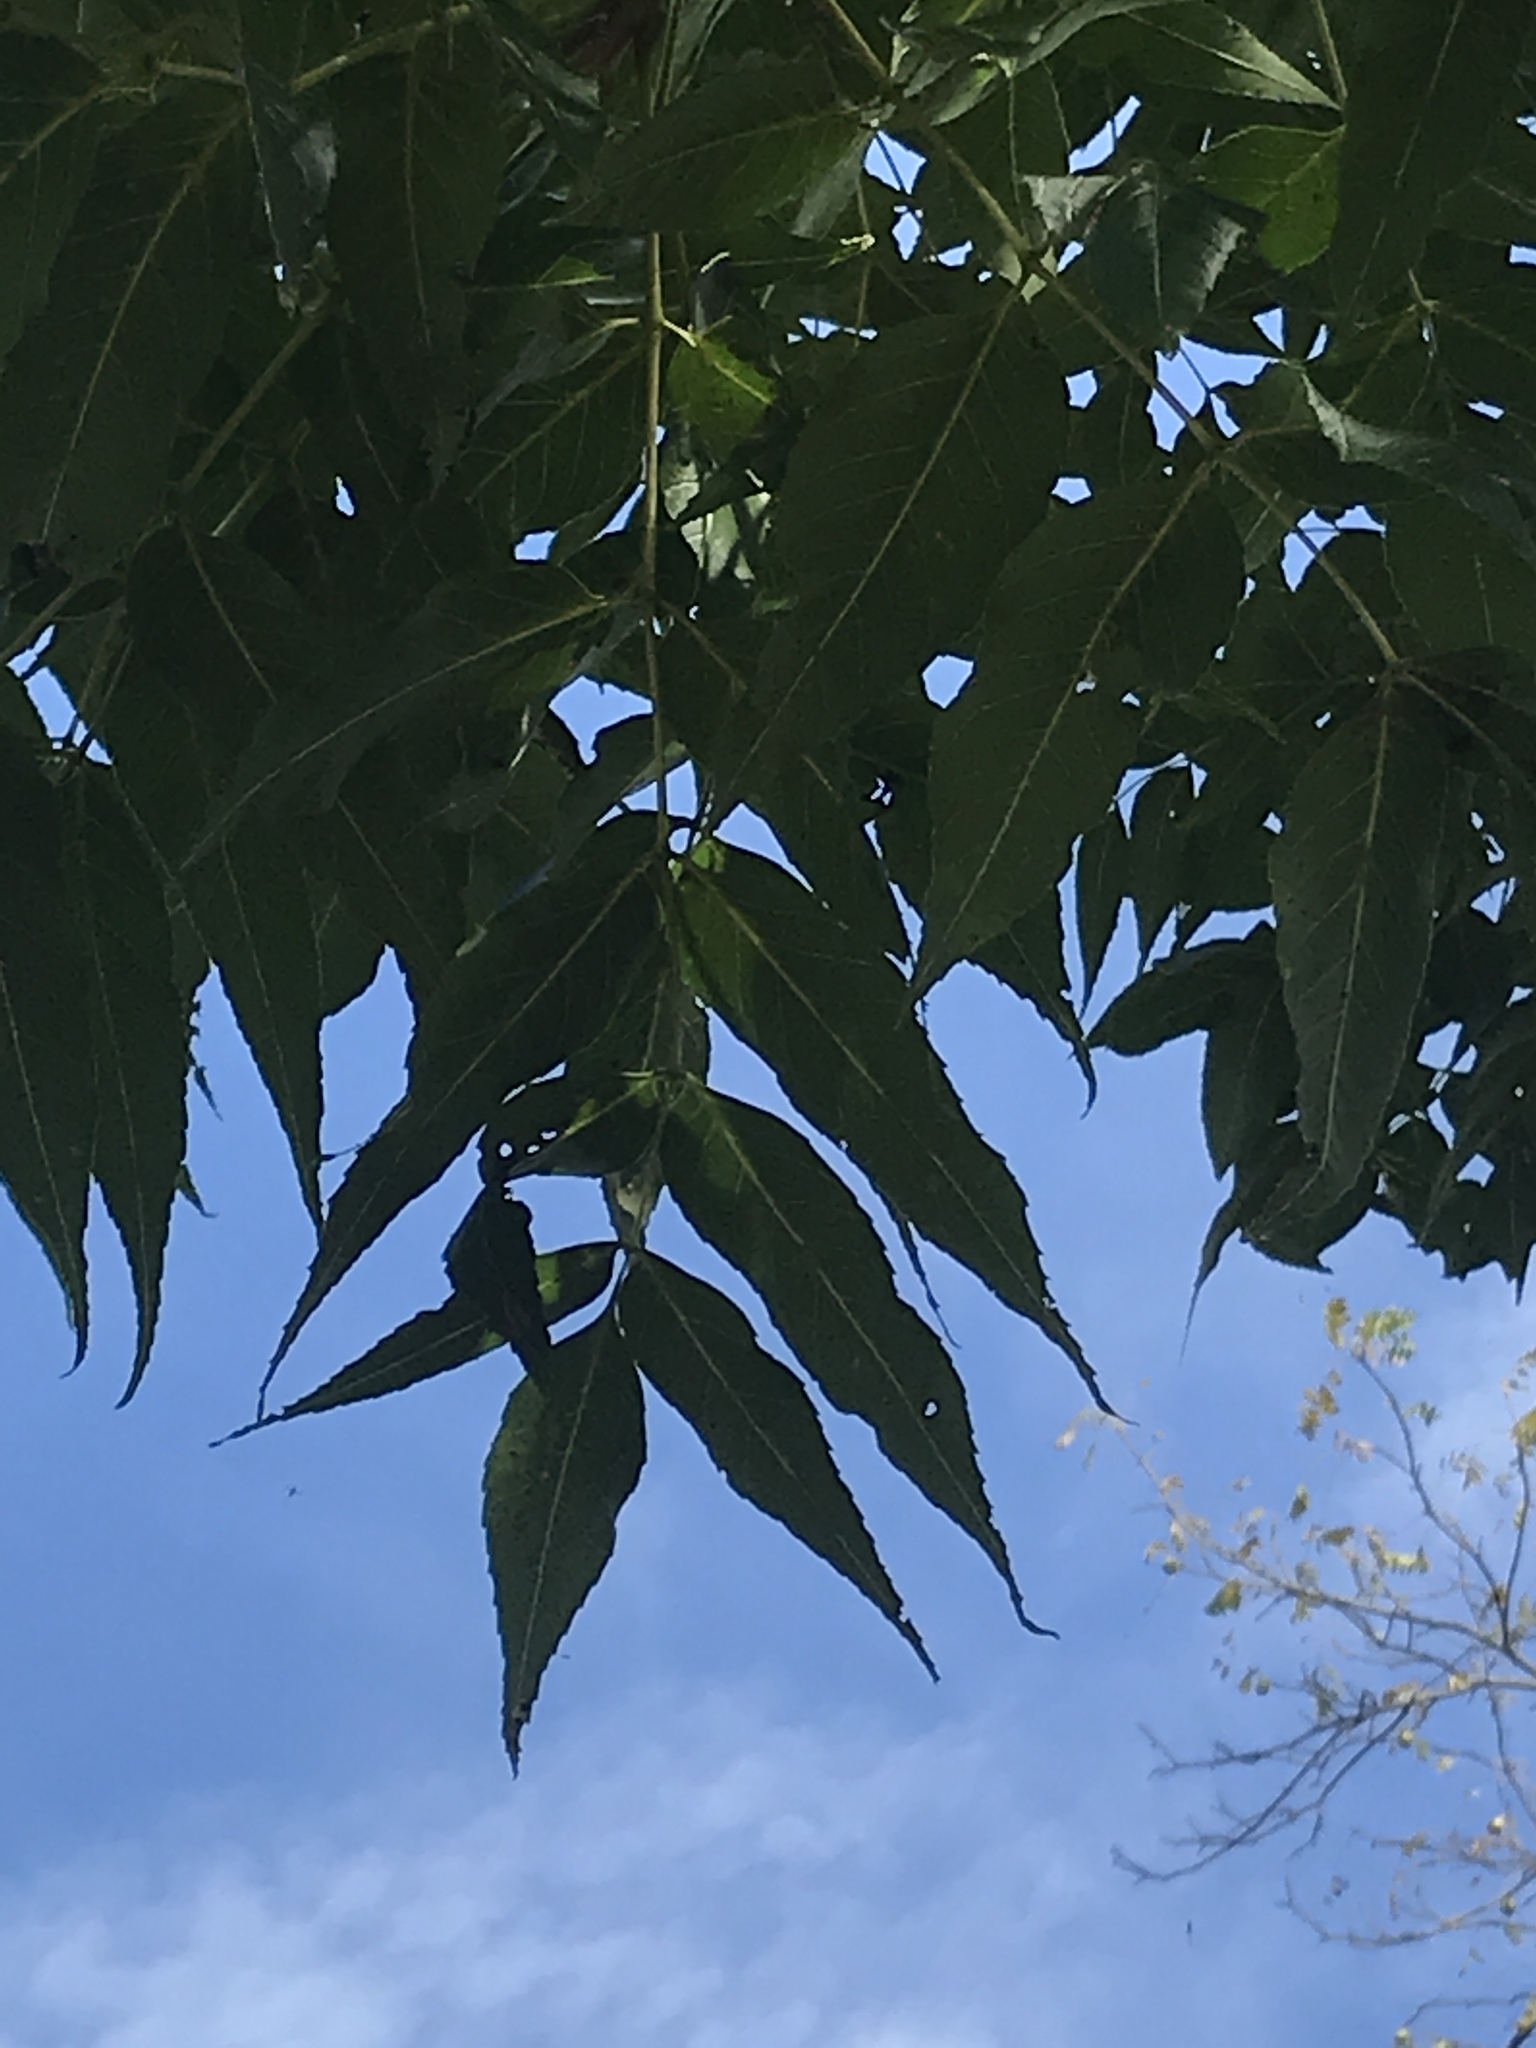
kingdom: Plantae
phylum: Tracheophyta
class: Magnoliopsida
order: Fagales
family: Juglandaceae
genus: Juglans
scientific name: Juglans nigra
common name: Black walnut
